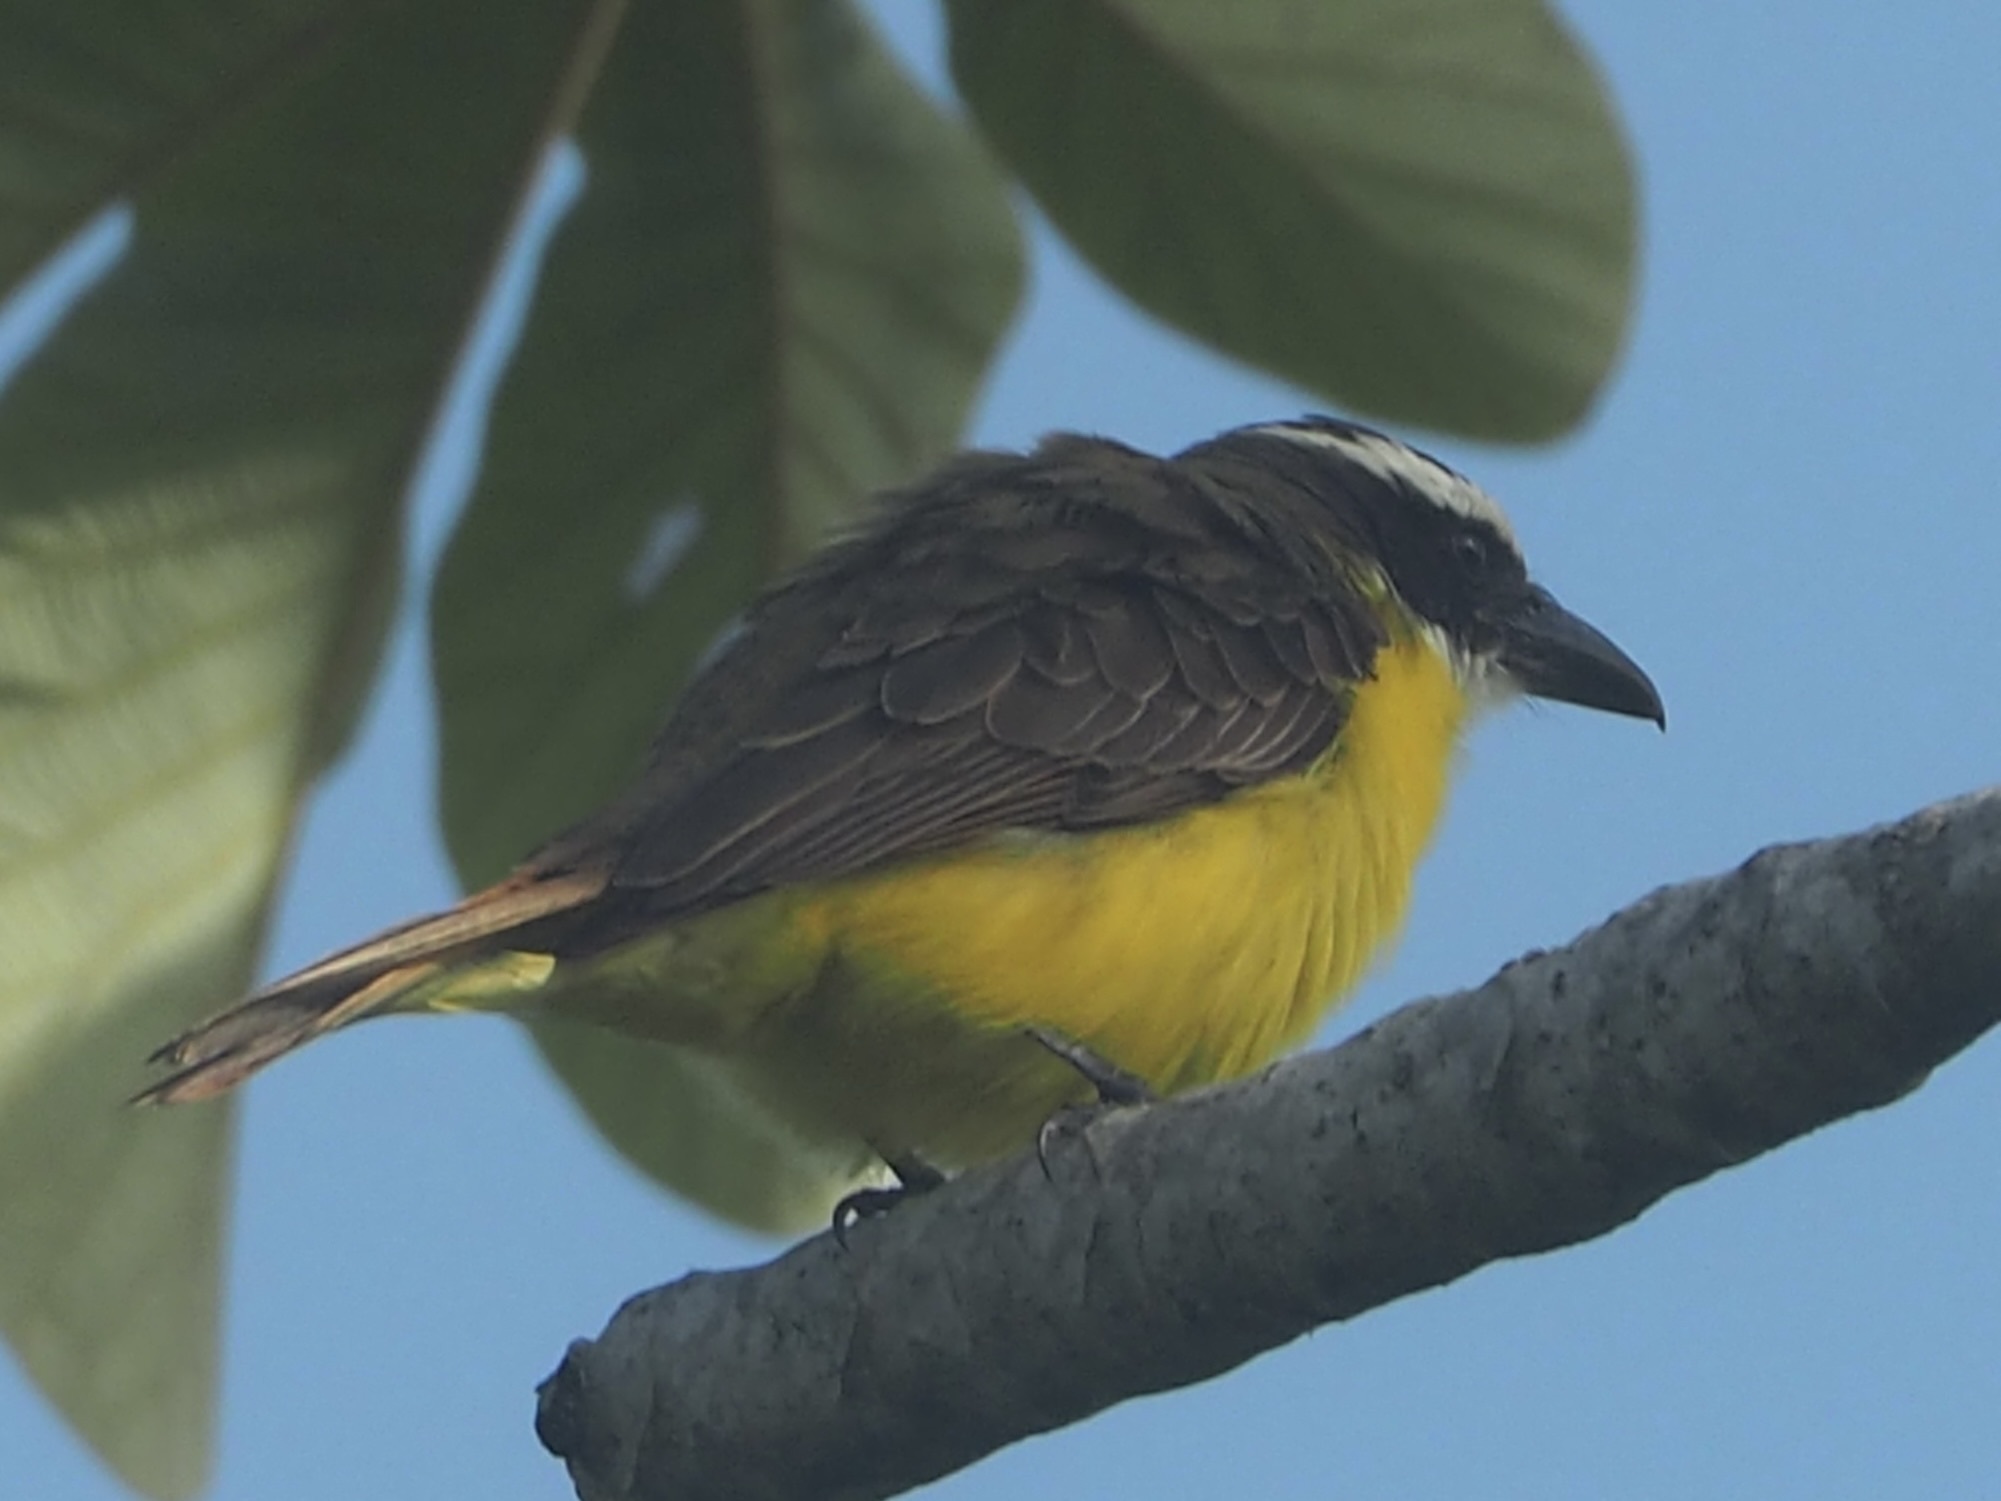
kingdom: Animalia
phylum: Chordata
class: Aves
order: Passeriformes
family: Tyrannidae
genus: Megarynchus
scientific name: Megarynchus pitangua
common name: Boat-billed flycatcher
